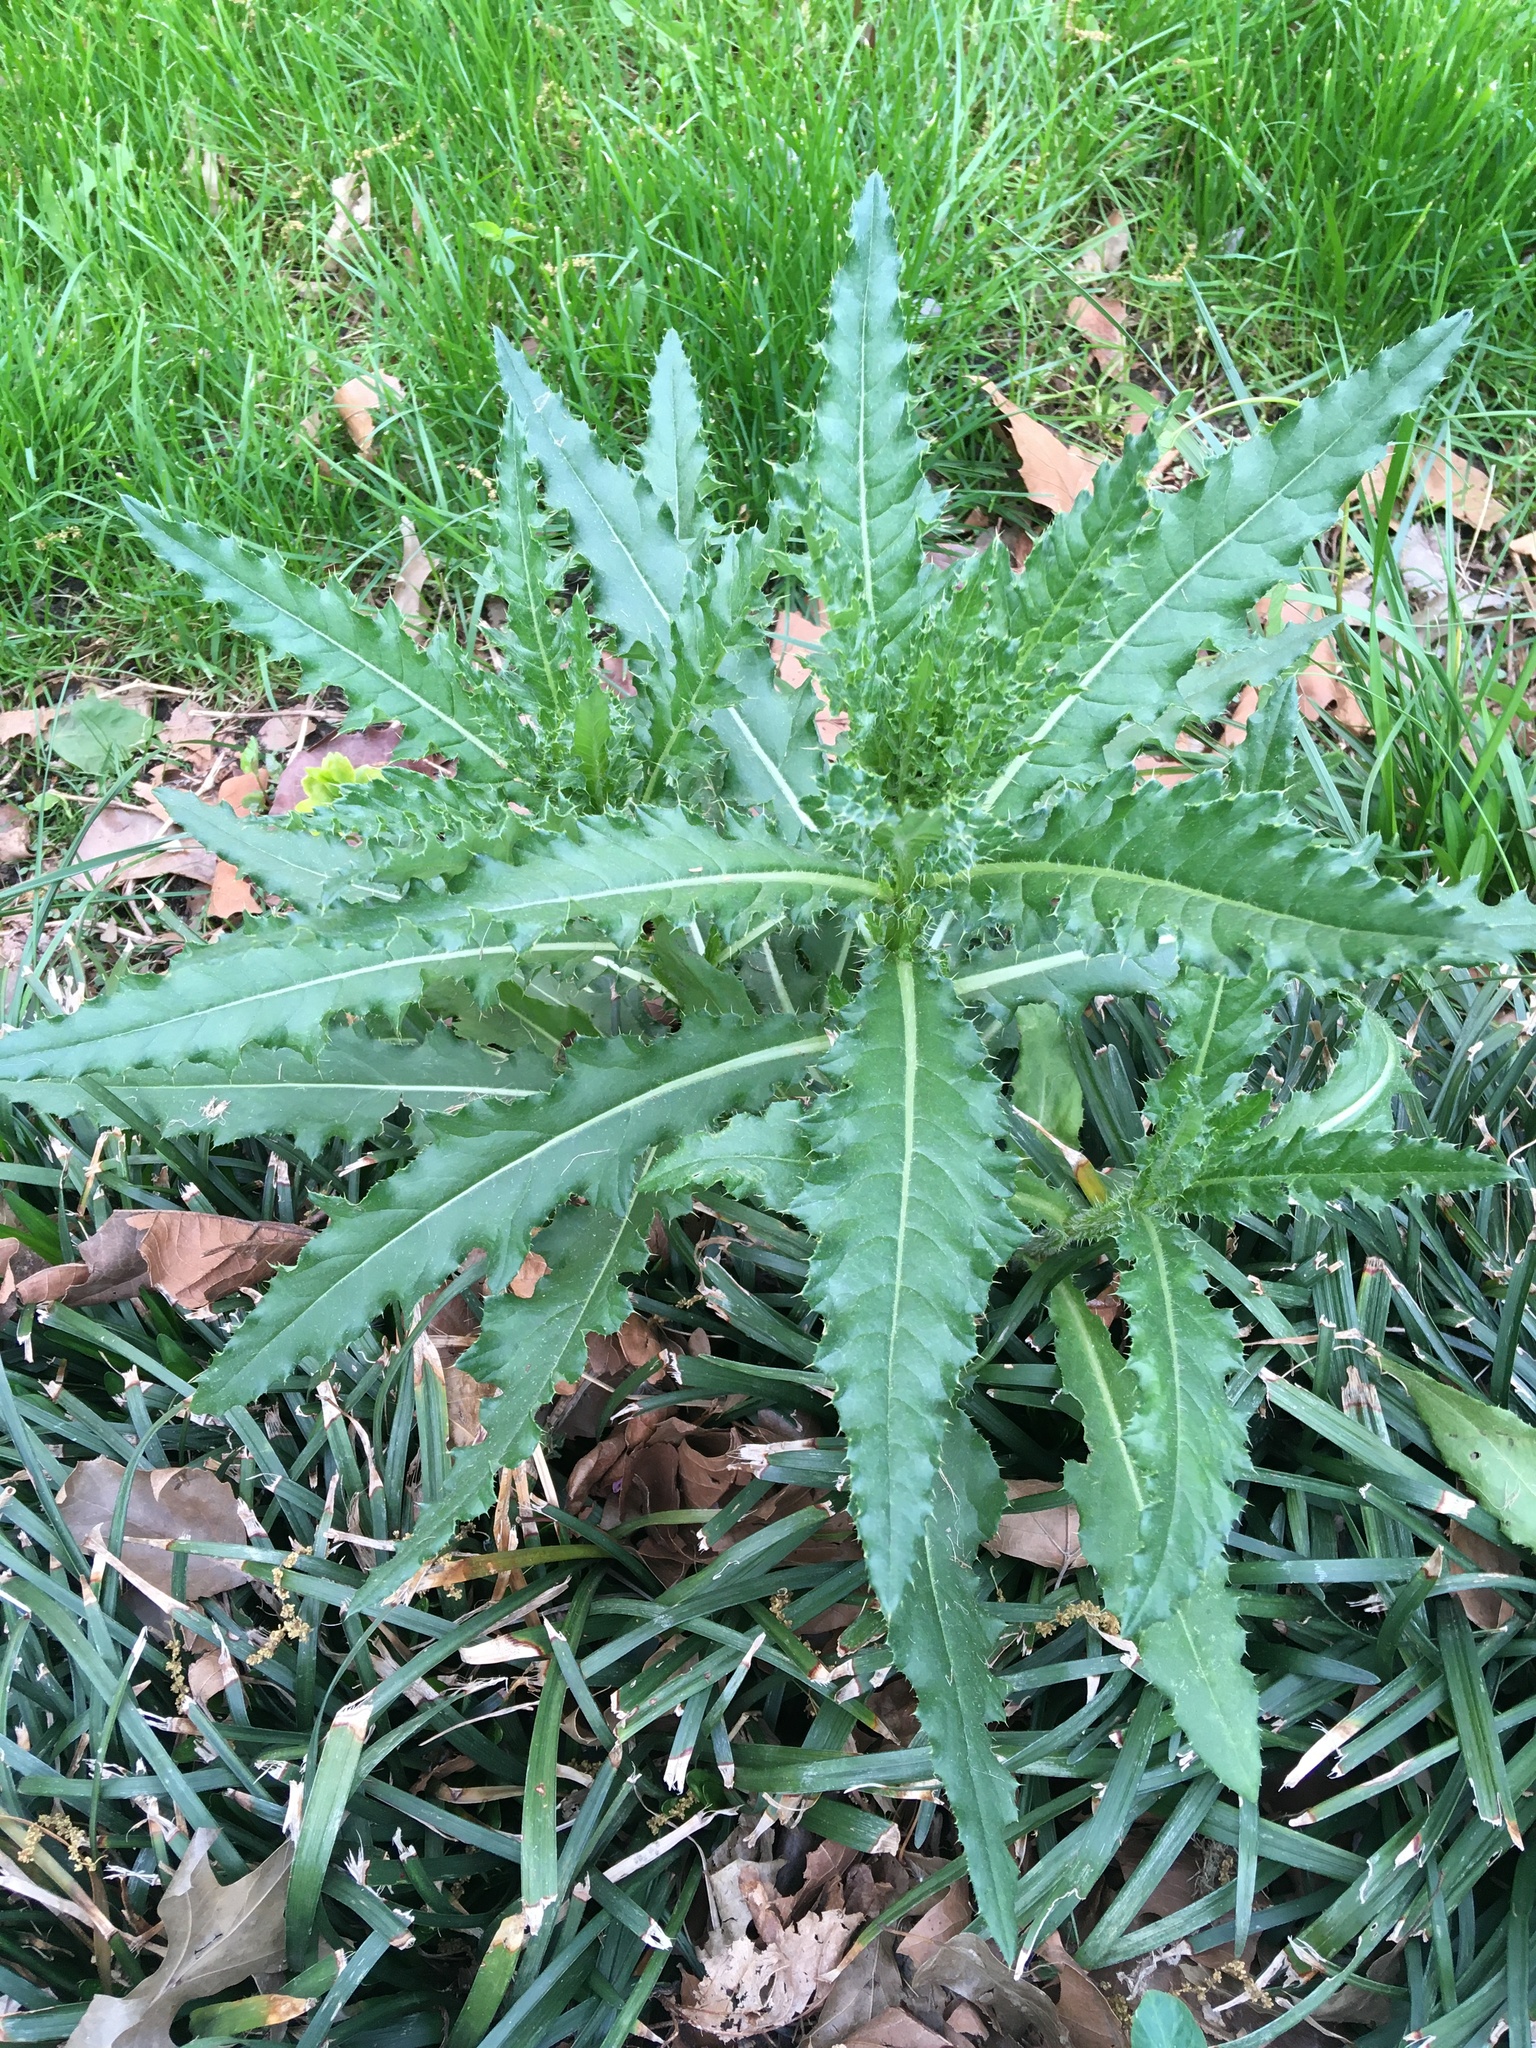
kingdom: Plantae
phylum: Tracheophyta
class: Magnoliopsida
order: Asterales
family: Asteraceae
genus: Cirsium
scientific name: Cirsium arvense
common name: Creeping thistle
